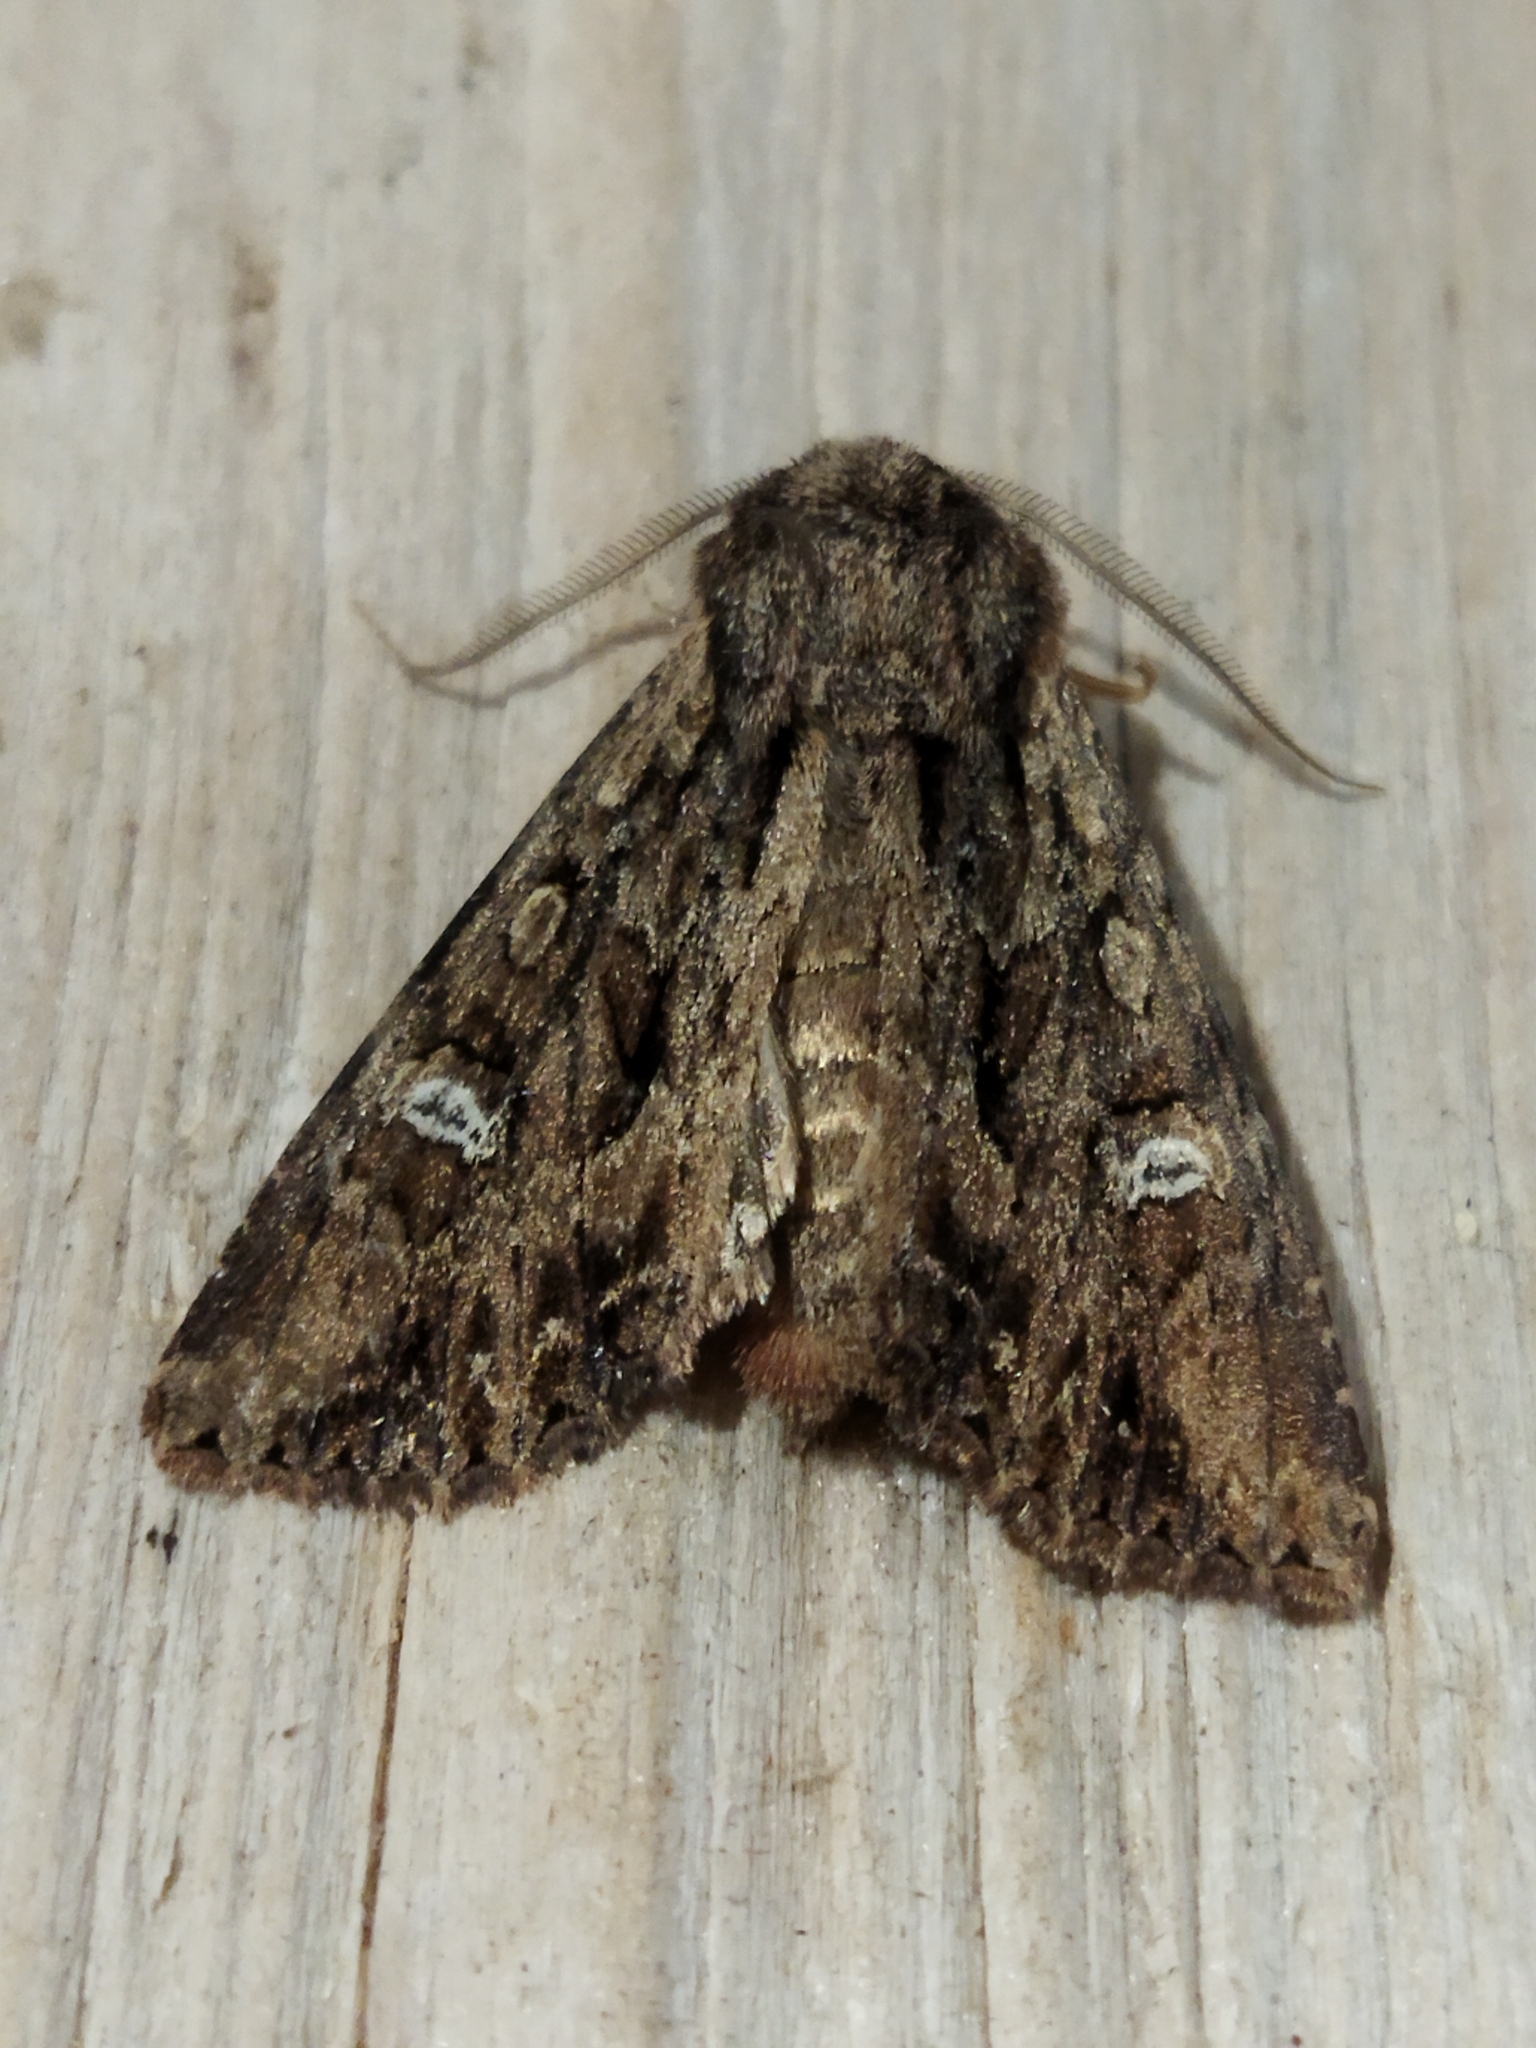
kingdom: Animalia
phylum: Arthropoda
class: Insecta
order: Lepidoptera
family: Noctuidae
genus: Polymixis
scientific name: Polymixis trisignata
